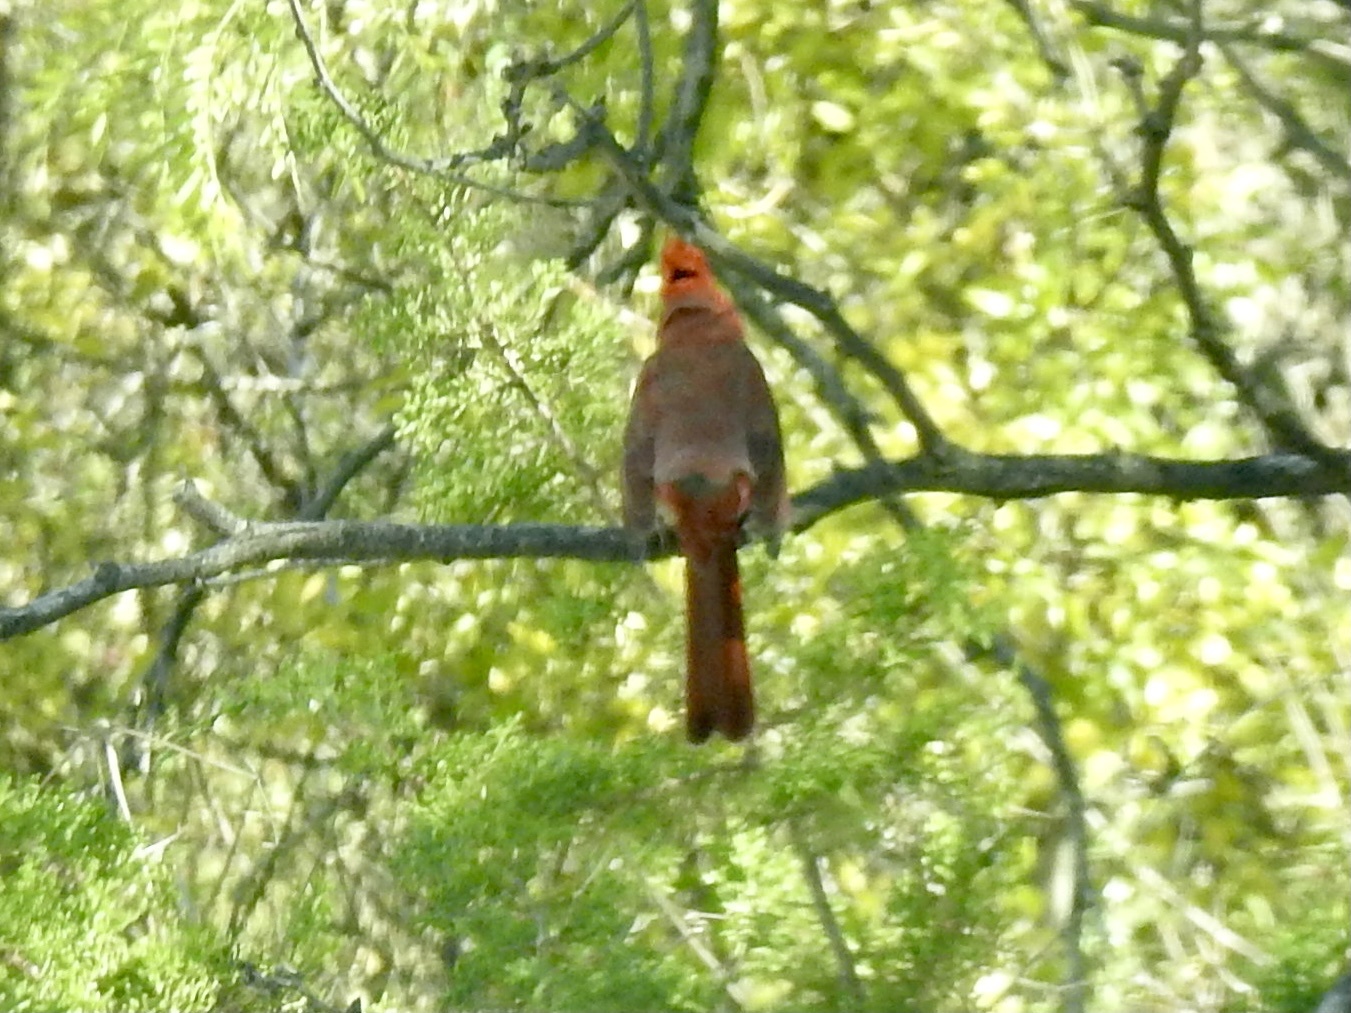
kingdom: Animalia
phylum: Chordata
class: Aves
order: Passeriformes
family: Cardinalidae
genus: Cardinalis
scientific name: Cardinalis cardinalis
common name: Northern cardinal
